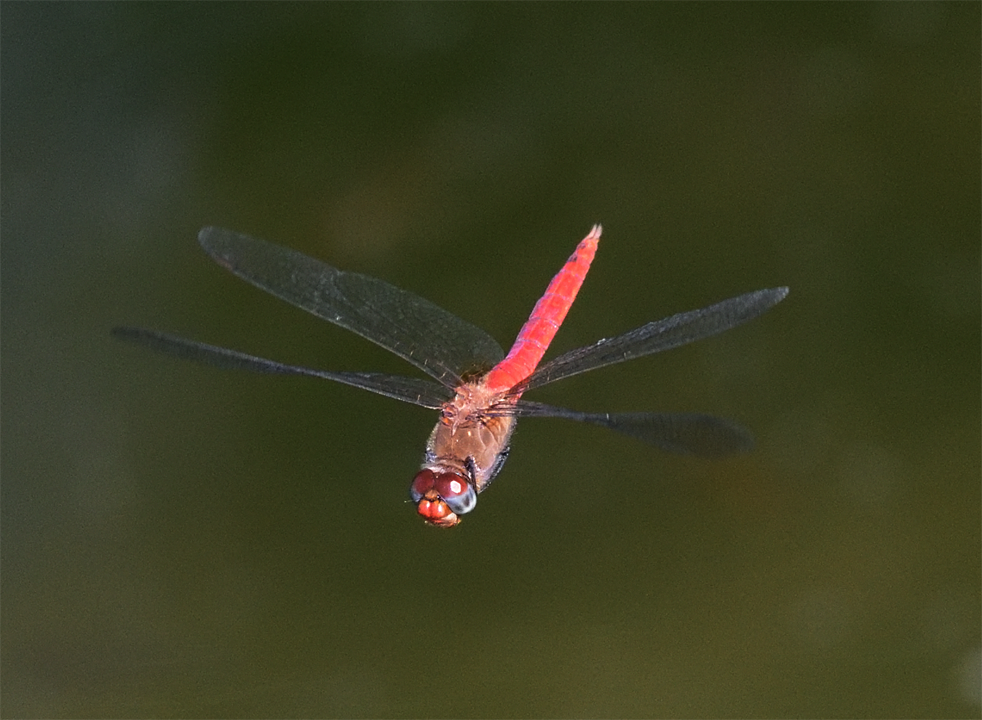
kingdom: Animalia
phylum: Arthropoda
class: Insecta
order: Odonata
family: Libellulidae
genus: Brachymesia
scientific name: Brachymesia furcata
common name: Red-taled pennant
